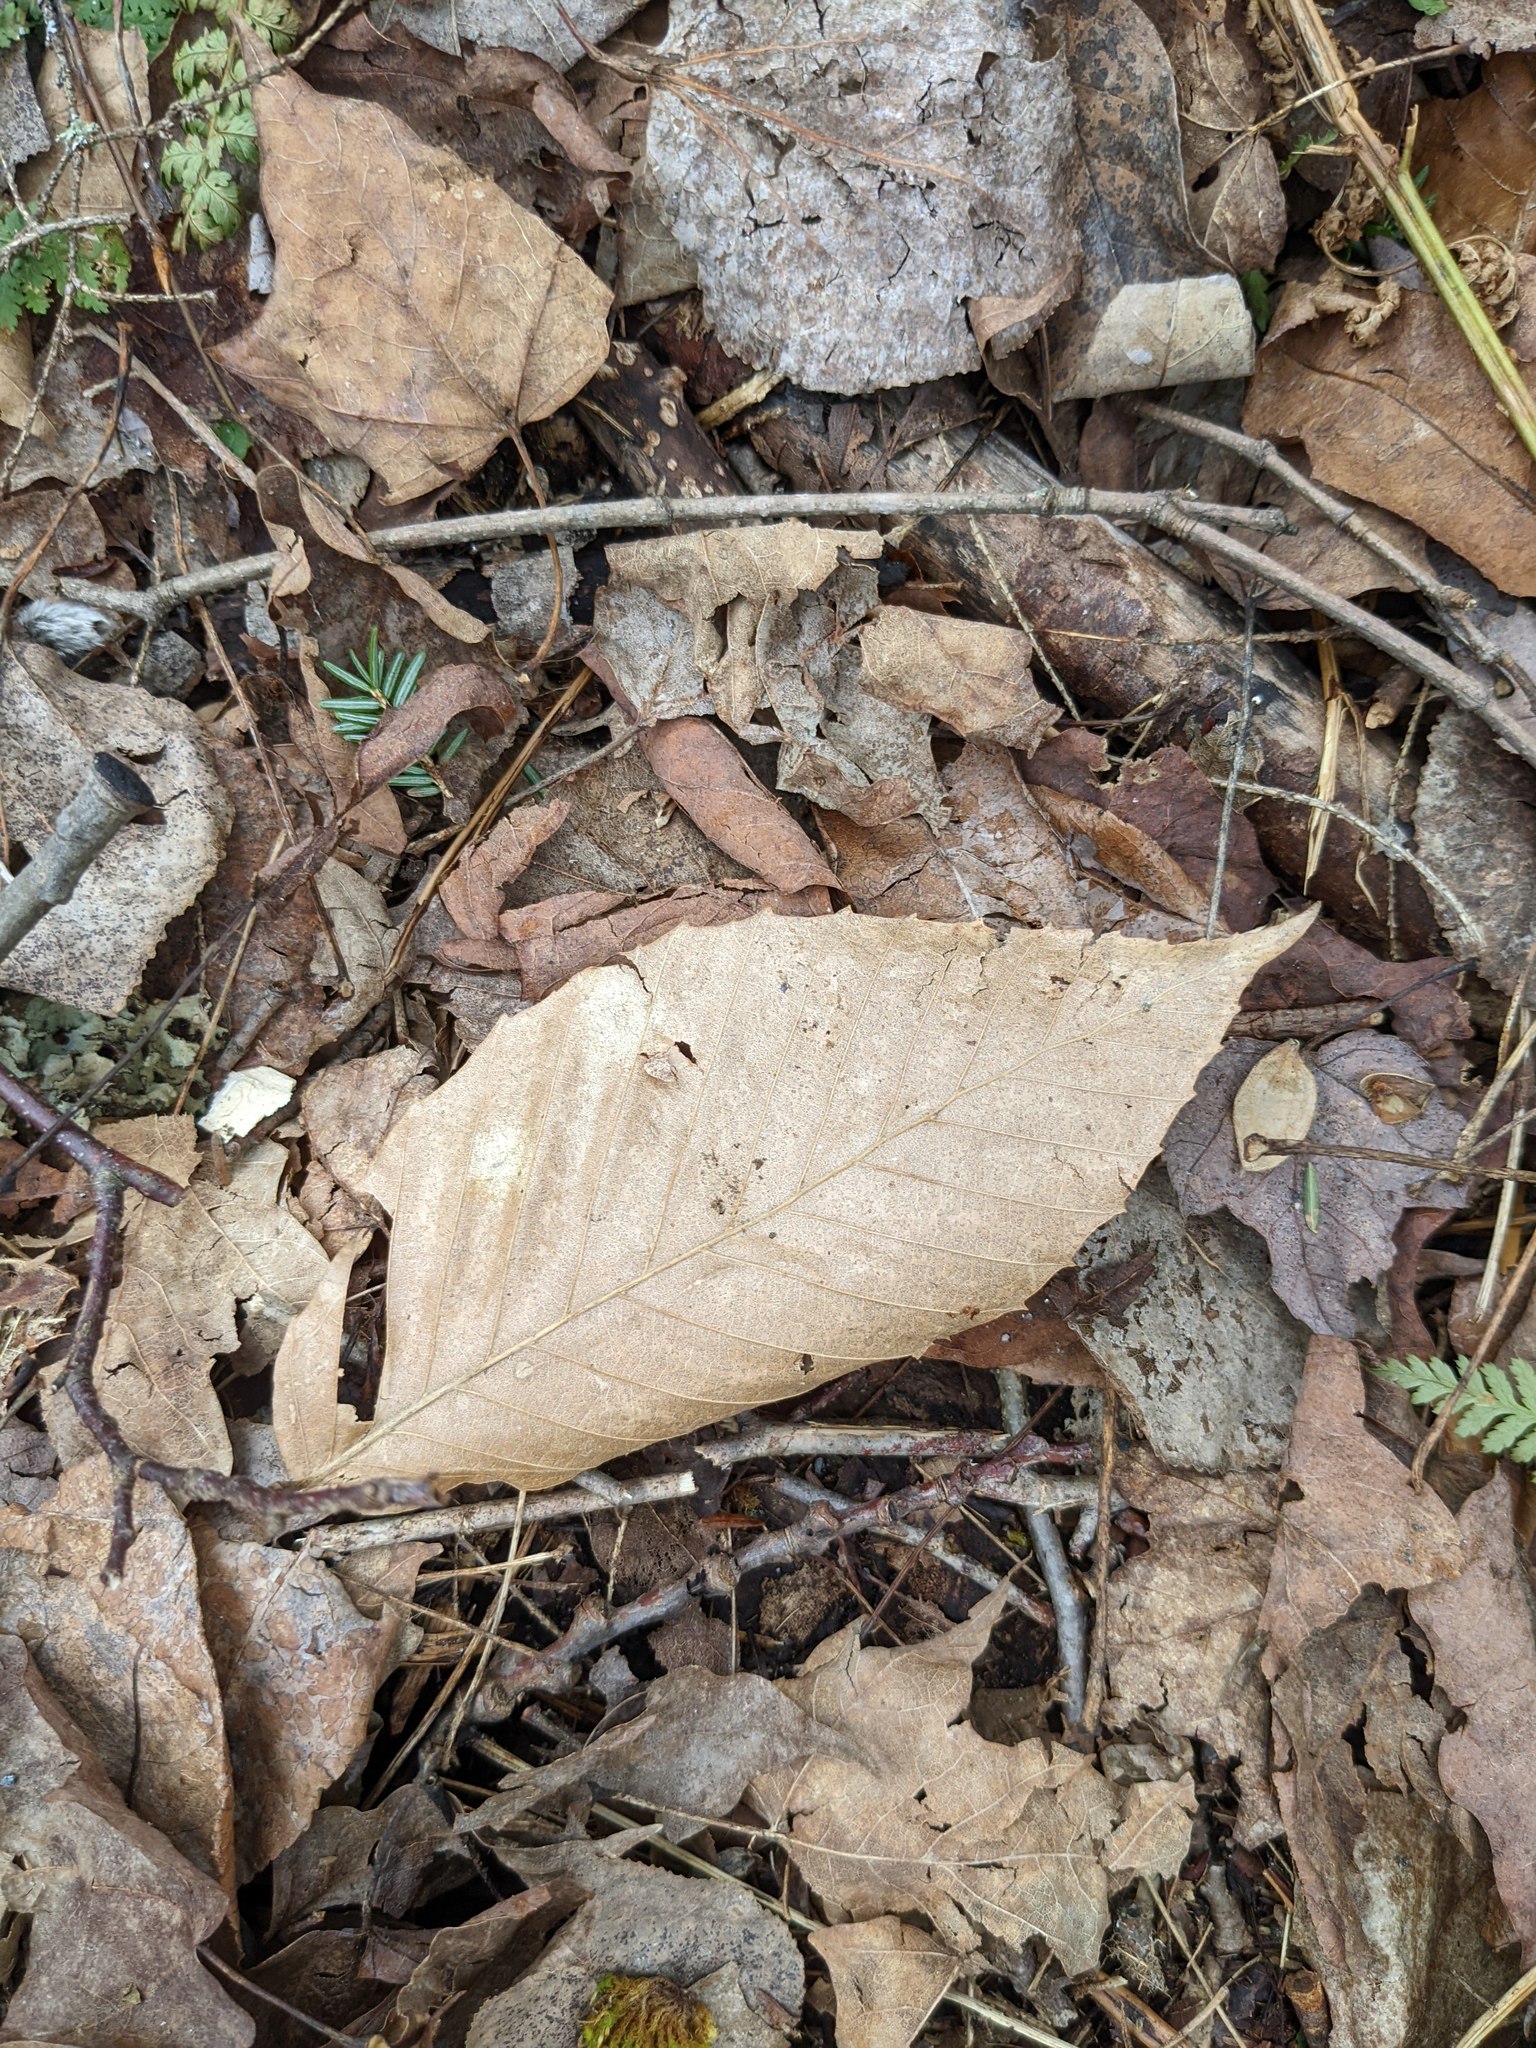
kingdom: Plantae
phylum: Tracheophyta
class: Magnoliopsida
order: Fagales
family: Fagaceae
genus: Fagus
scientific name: Fagus grandifolia
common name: American beech
